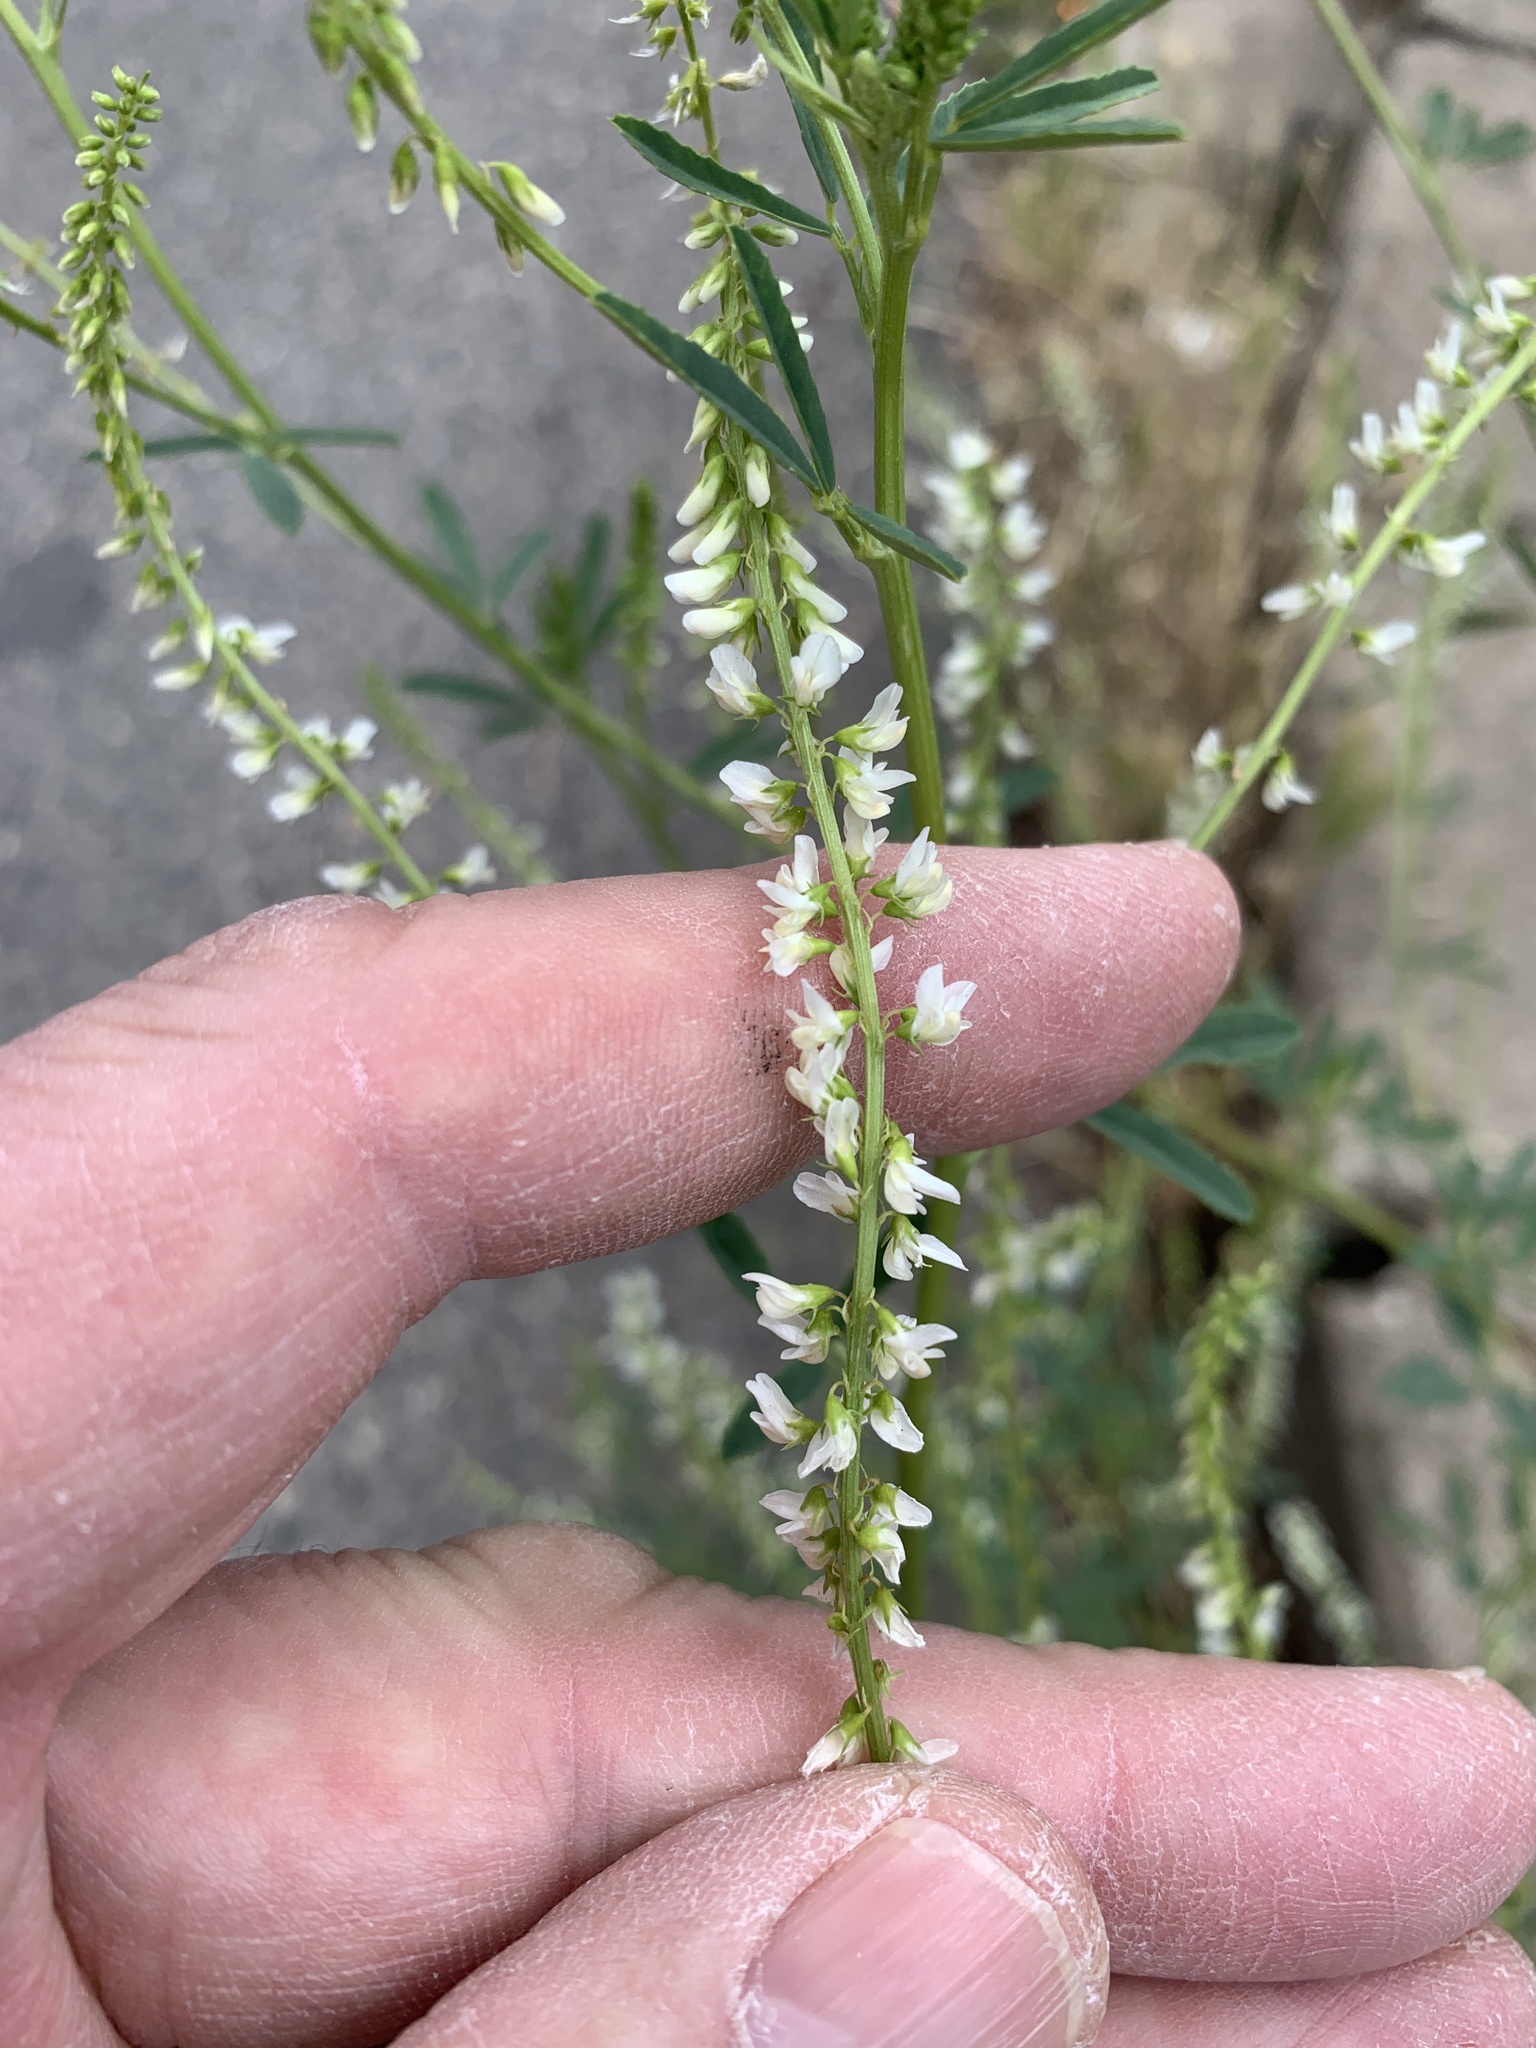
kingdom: Plantae
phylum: Tracheophyta
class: Magnoliopsida
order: Fabales
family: Fabaceae
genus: Melilotus
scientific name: Melilotus albus
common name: White melilot
